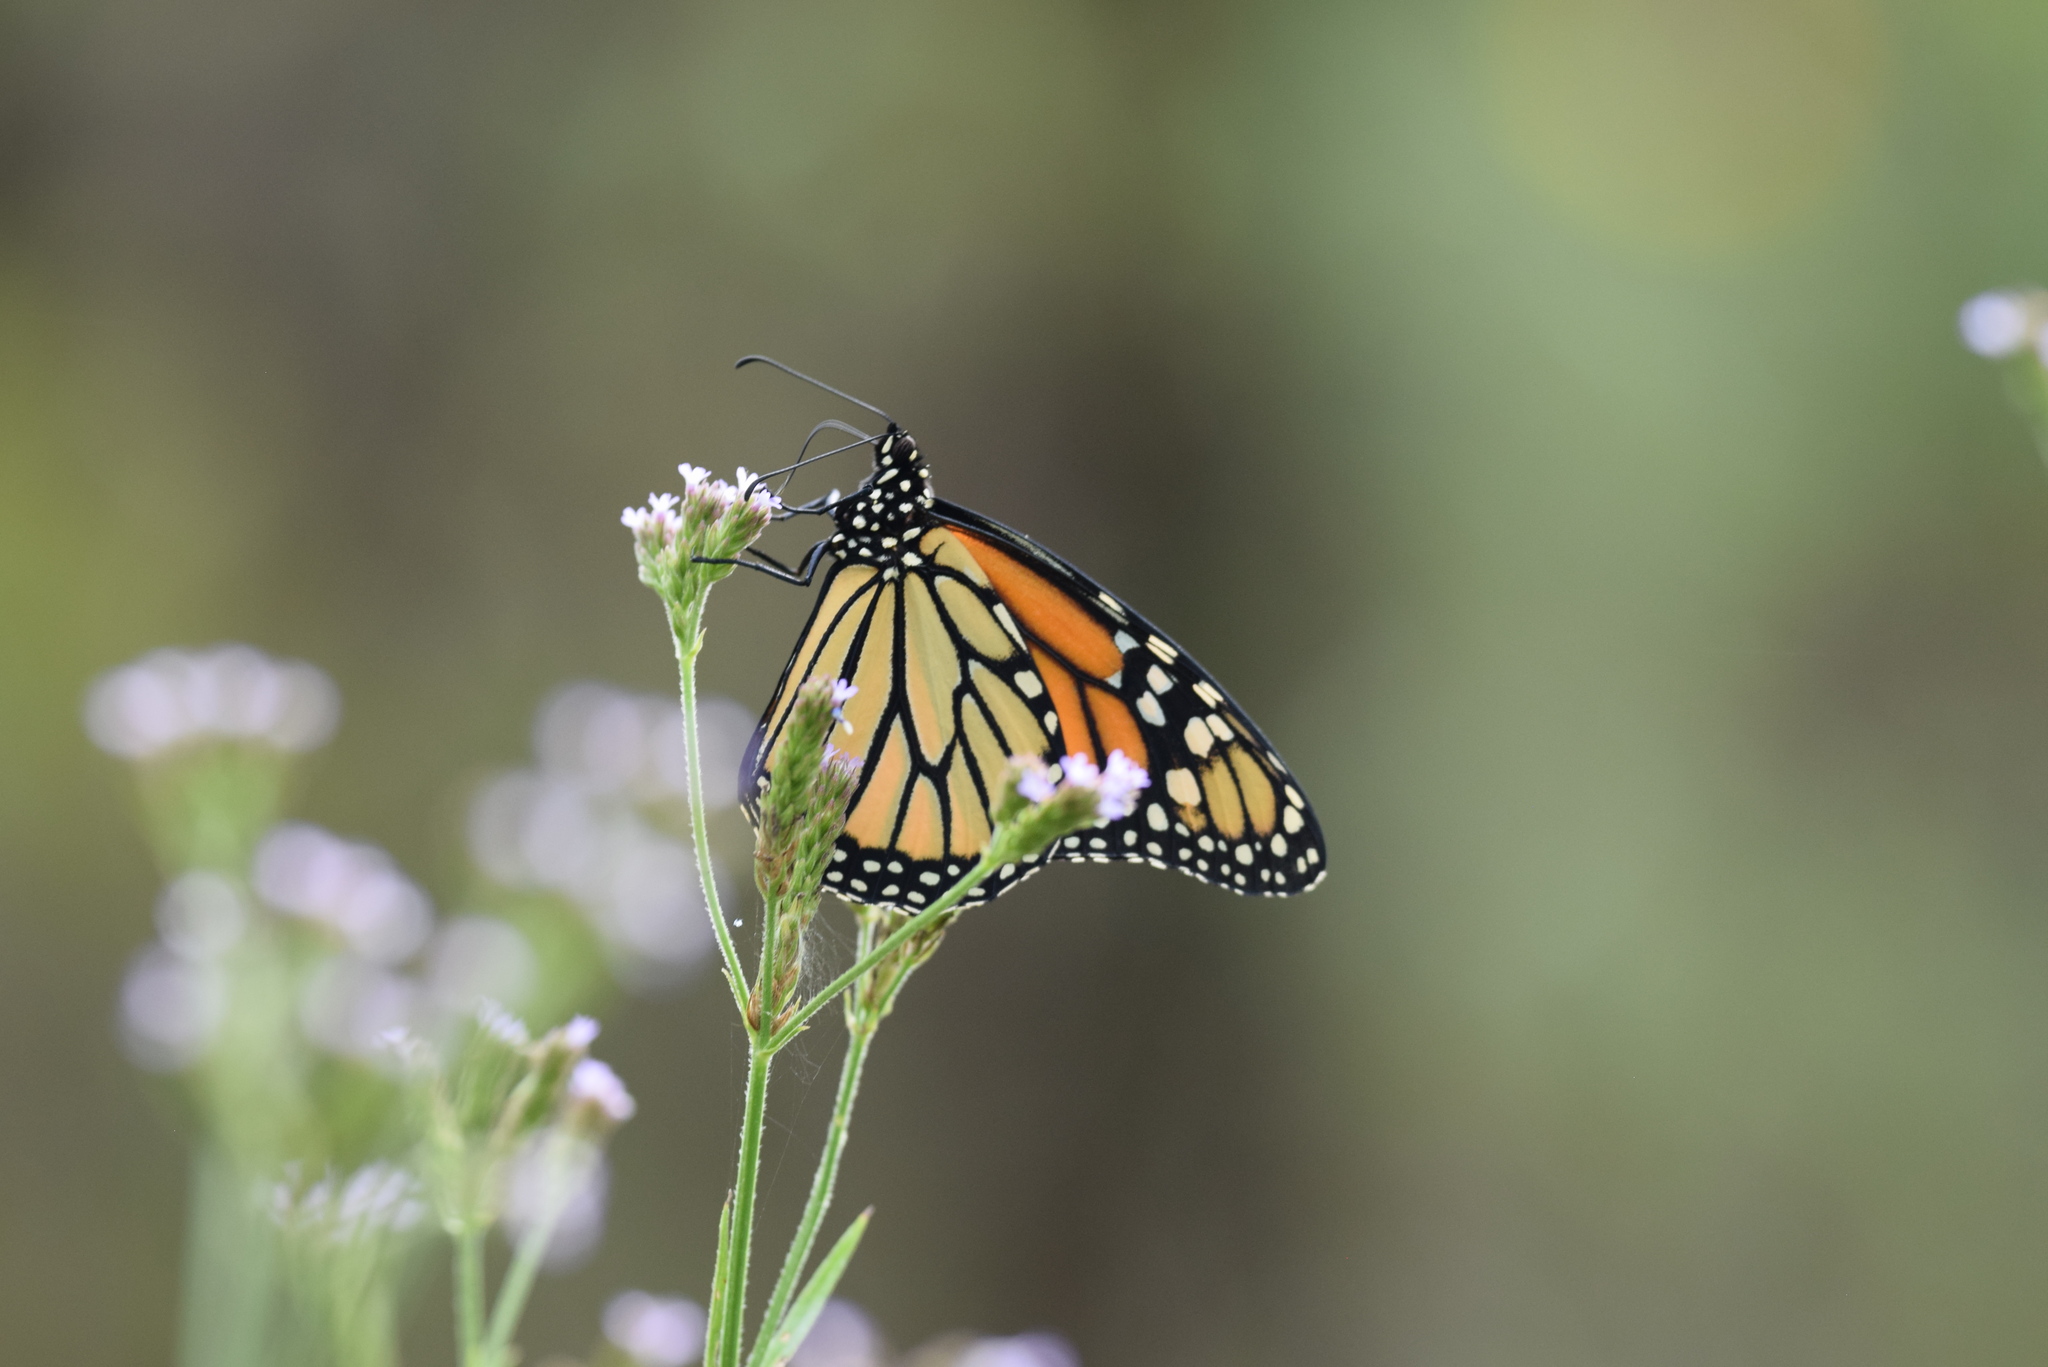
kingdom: Animalia
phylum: Arthropoda
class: Insecta
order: Lepidoptera
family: Nymphalidae
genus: Danaus
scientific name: Danaus plexippus
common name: Monarch
